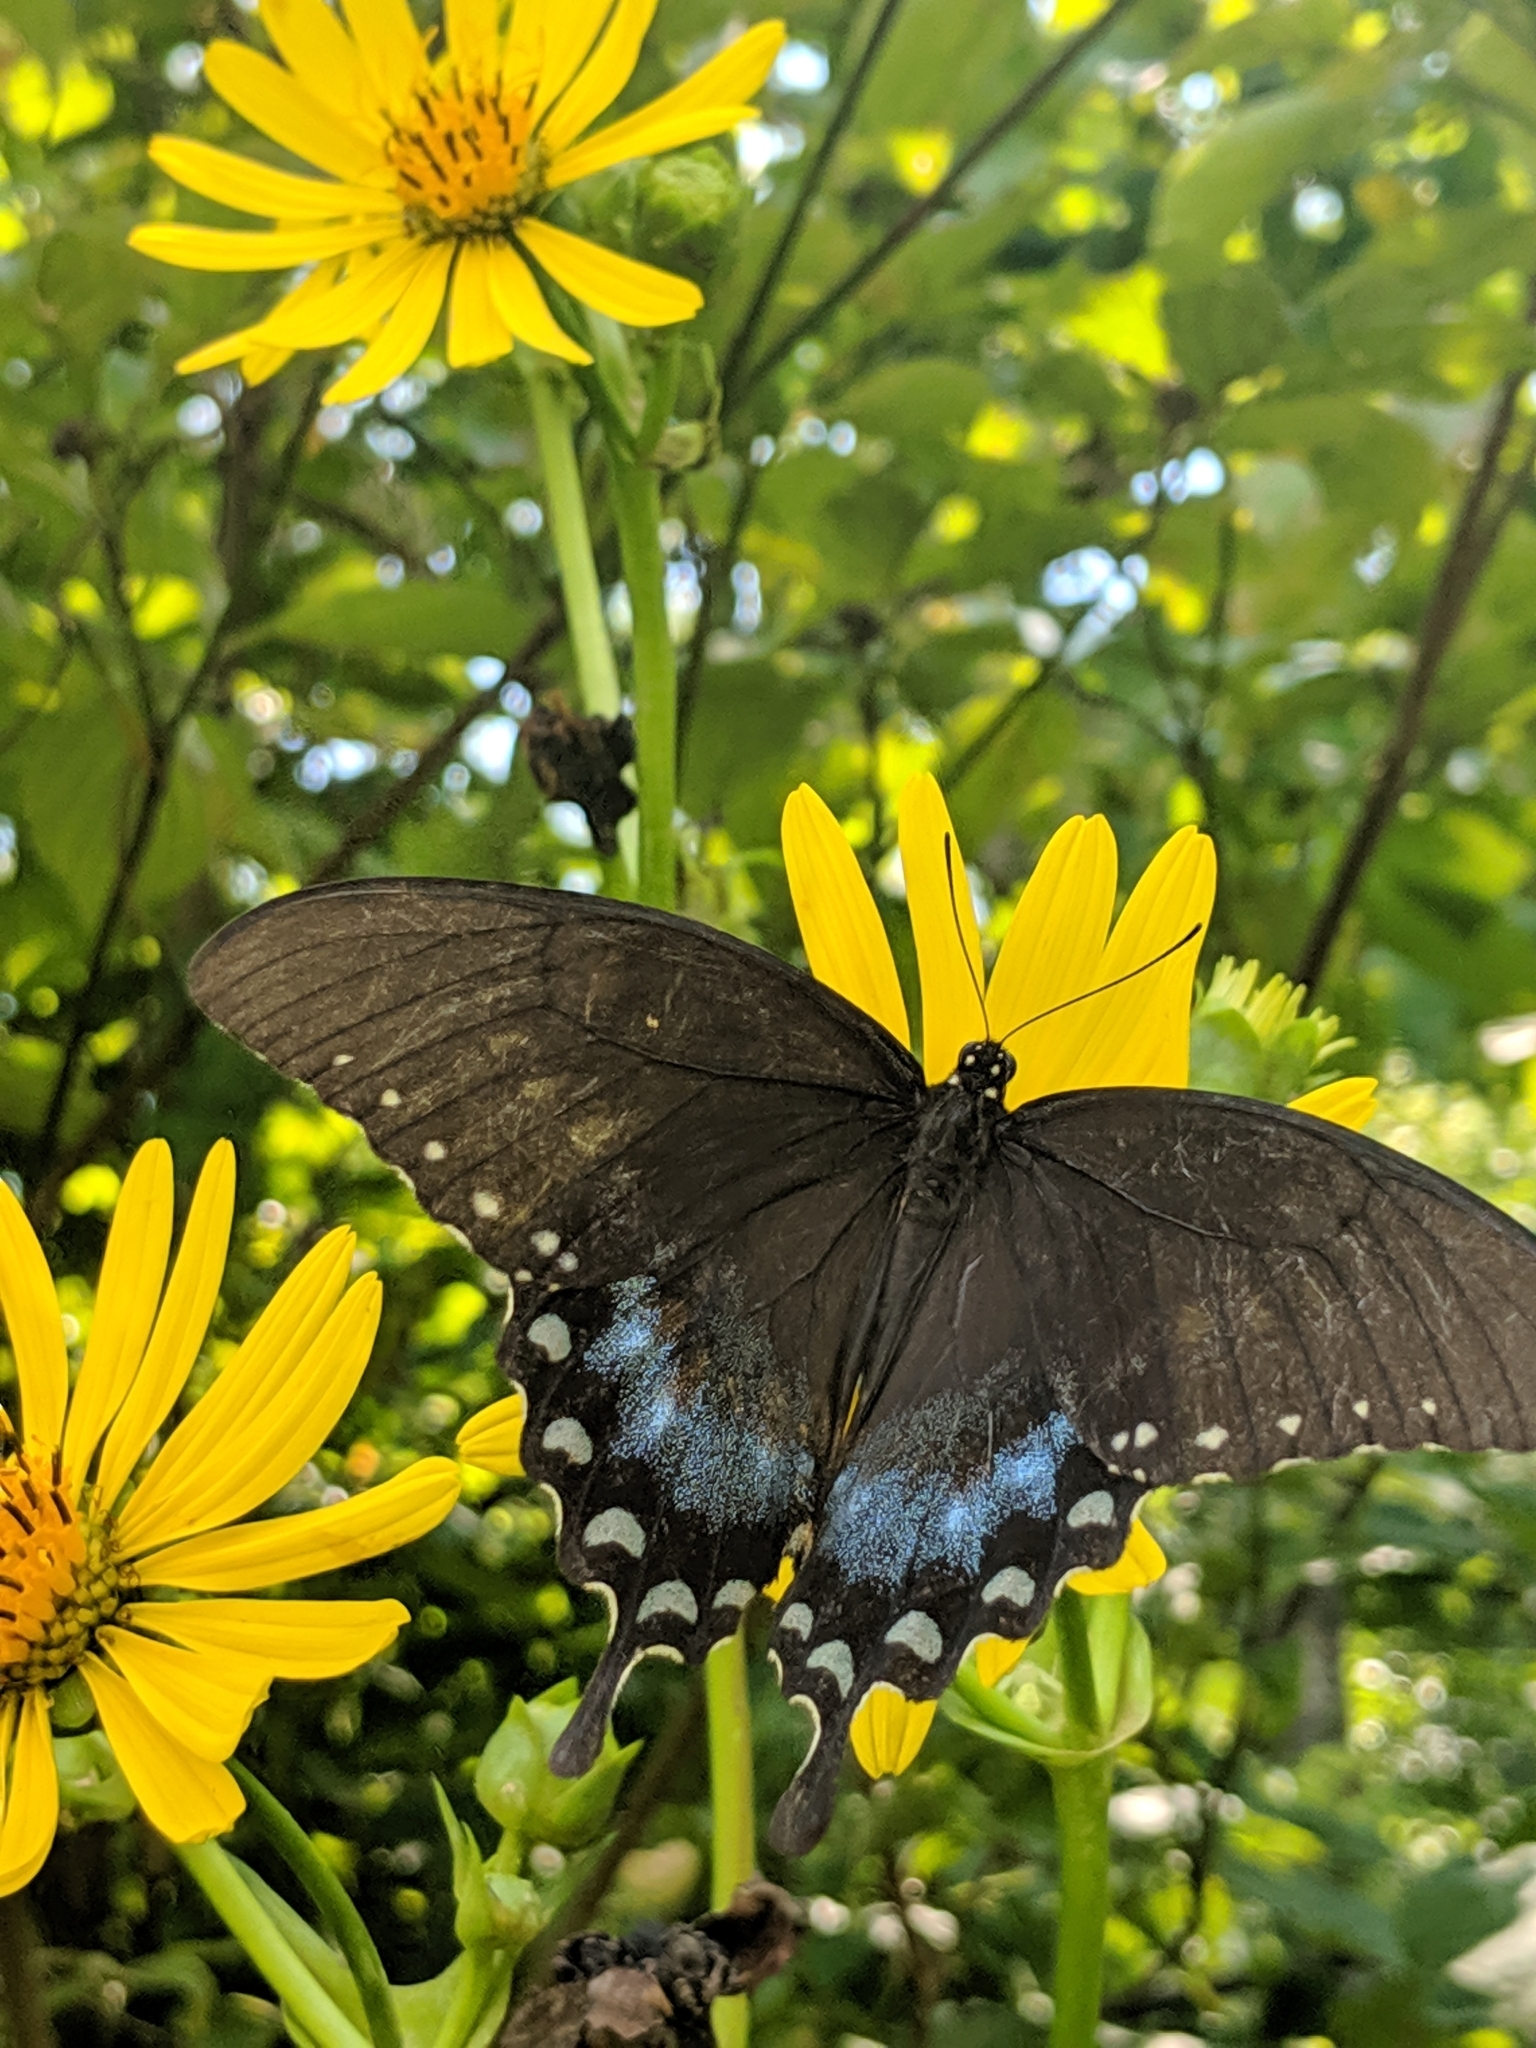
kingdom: Animalia
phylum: Arthropoda
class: Insecta
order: Lepidoptera
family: Papilionidae
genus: Papilio
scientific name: Papilio troilus
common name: Spicebush swallowtail
